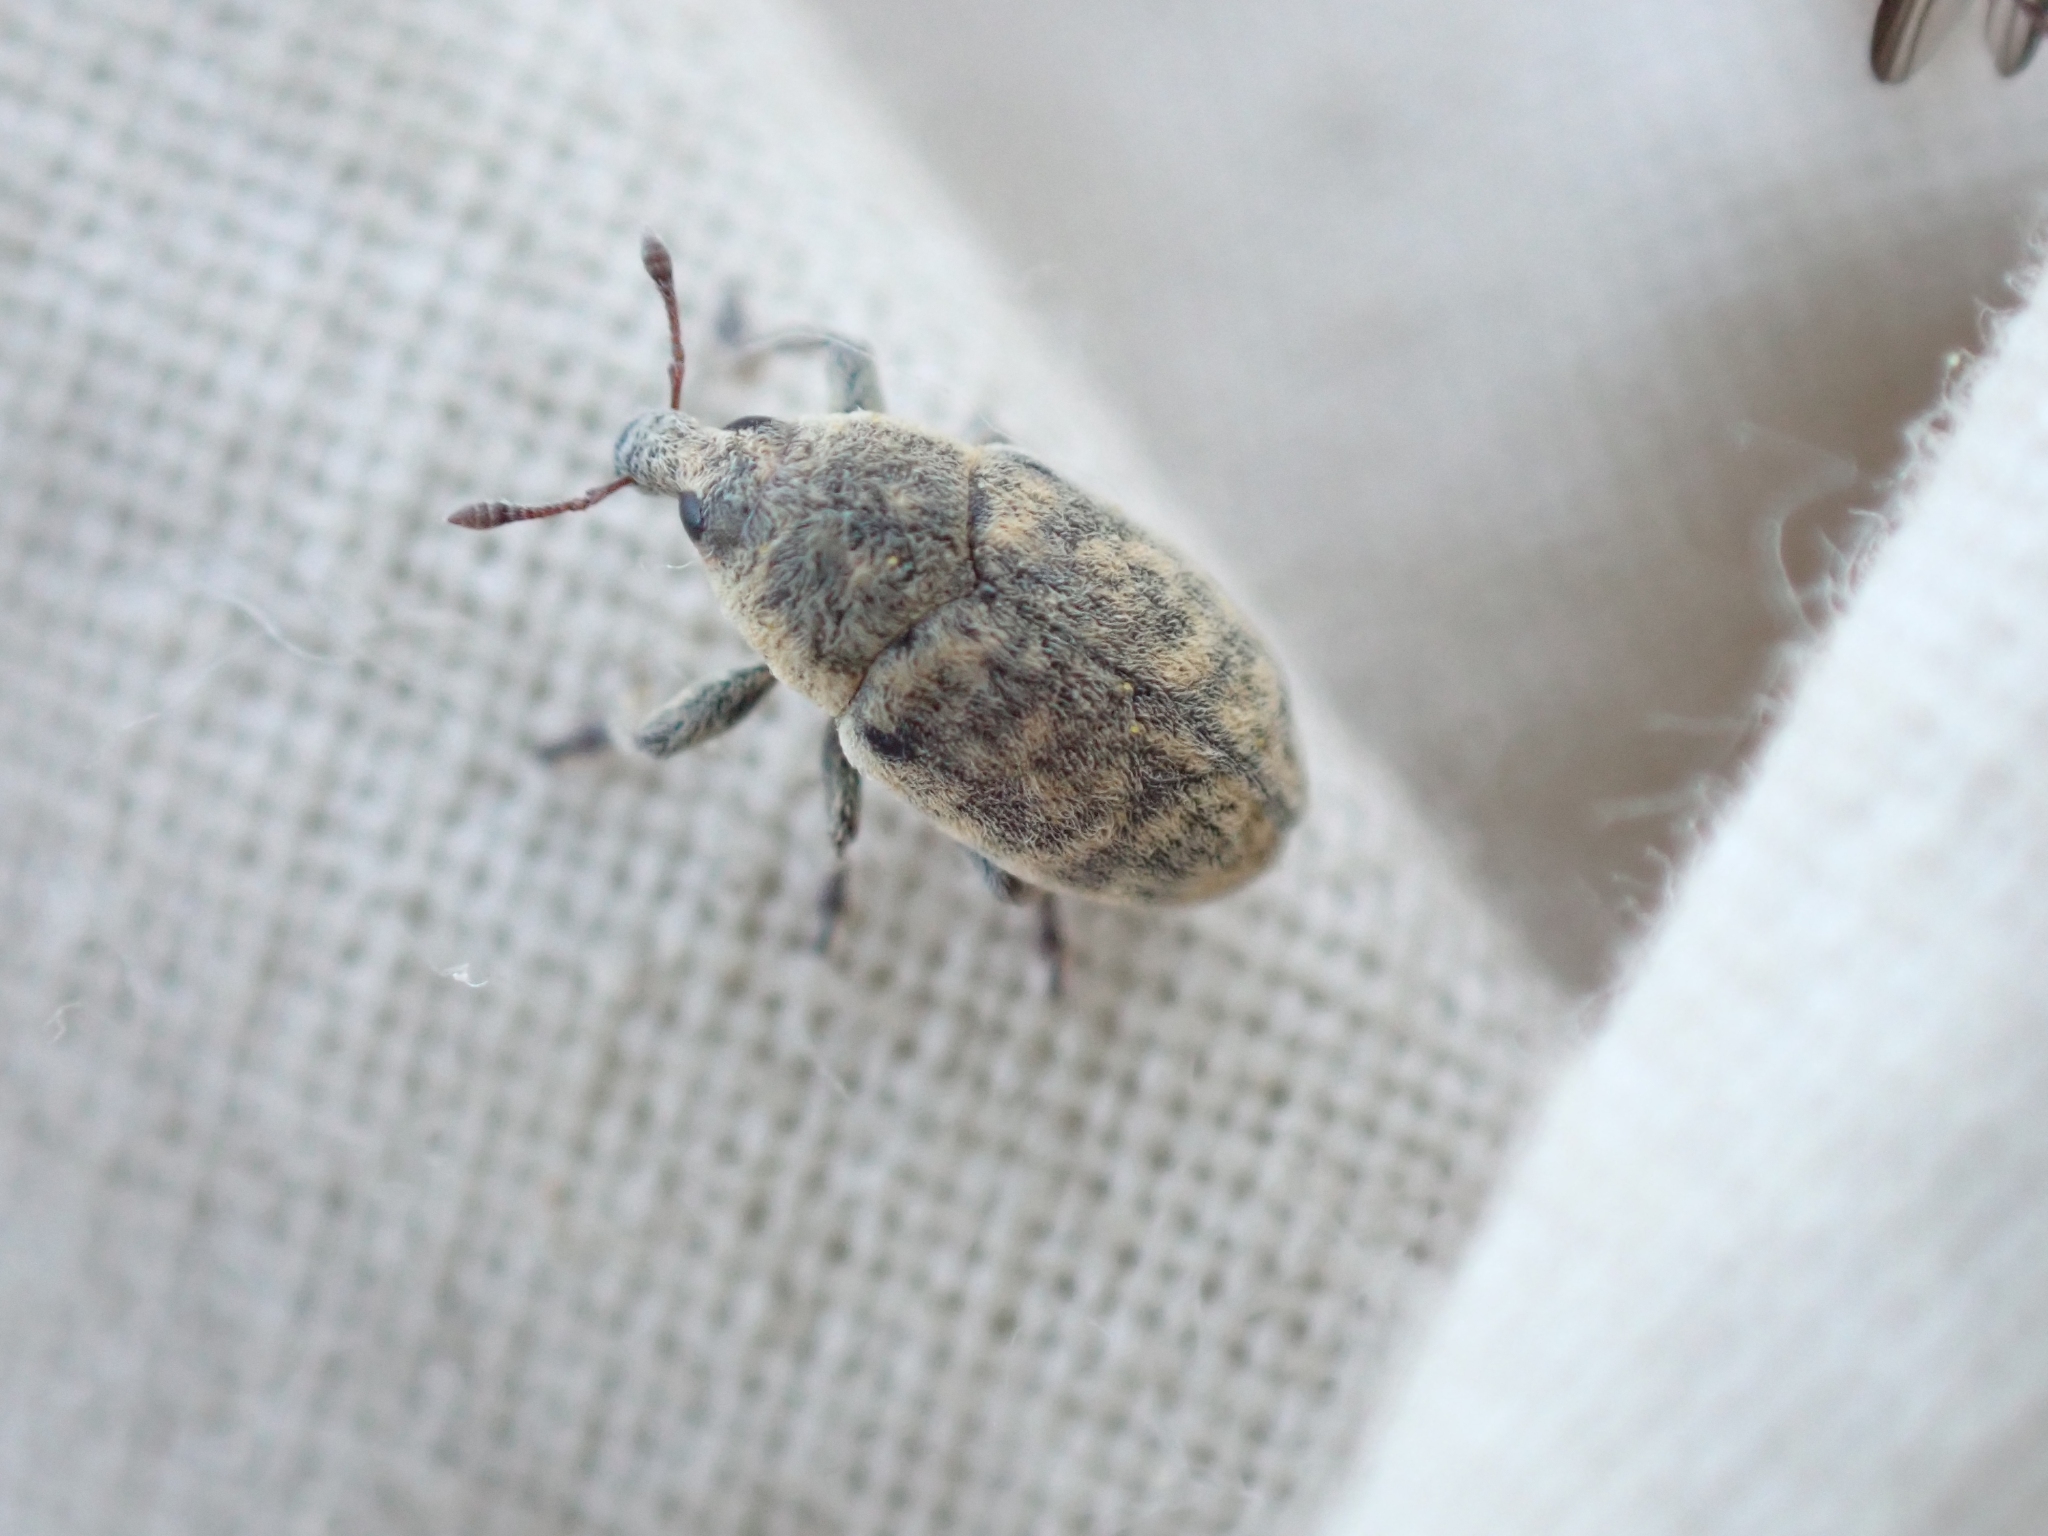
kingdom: Animalia
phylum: Arthropoda
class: Insecta
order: Coleoptera
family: Curculionidae
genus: Larinus
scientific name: Larinus minutus
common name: Weevil
